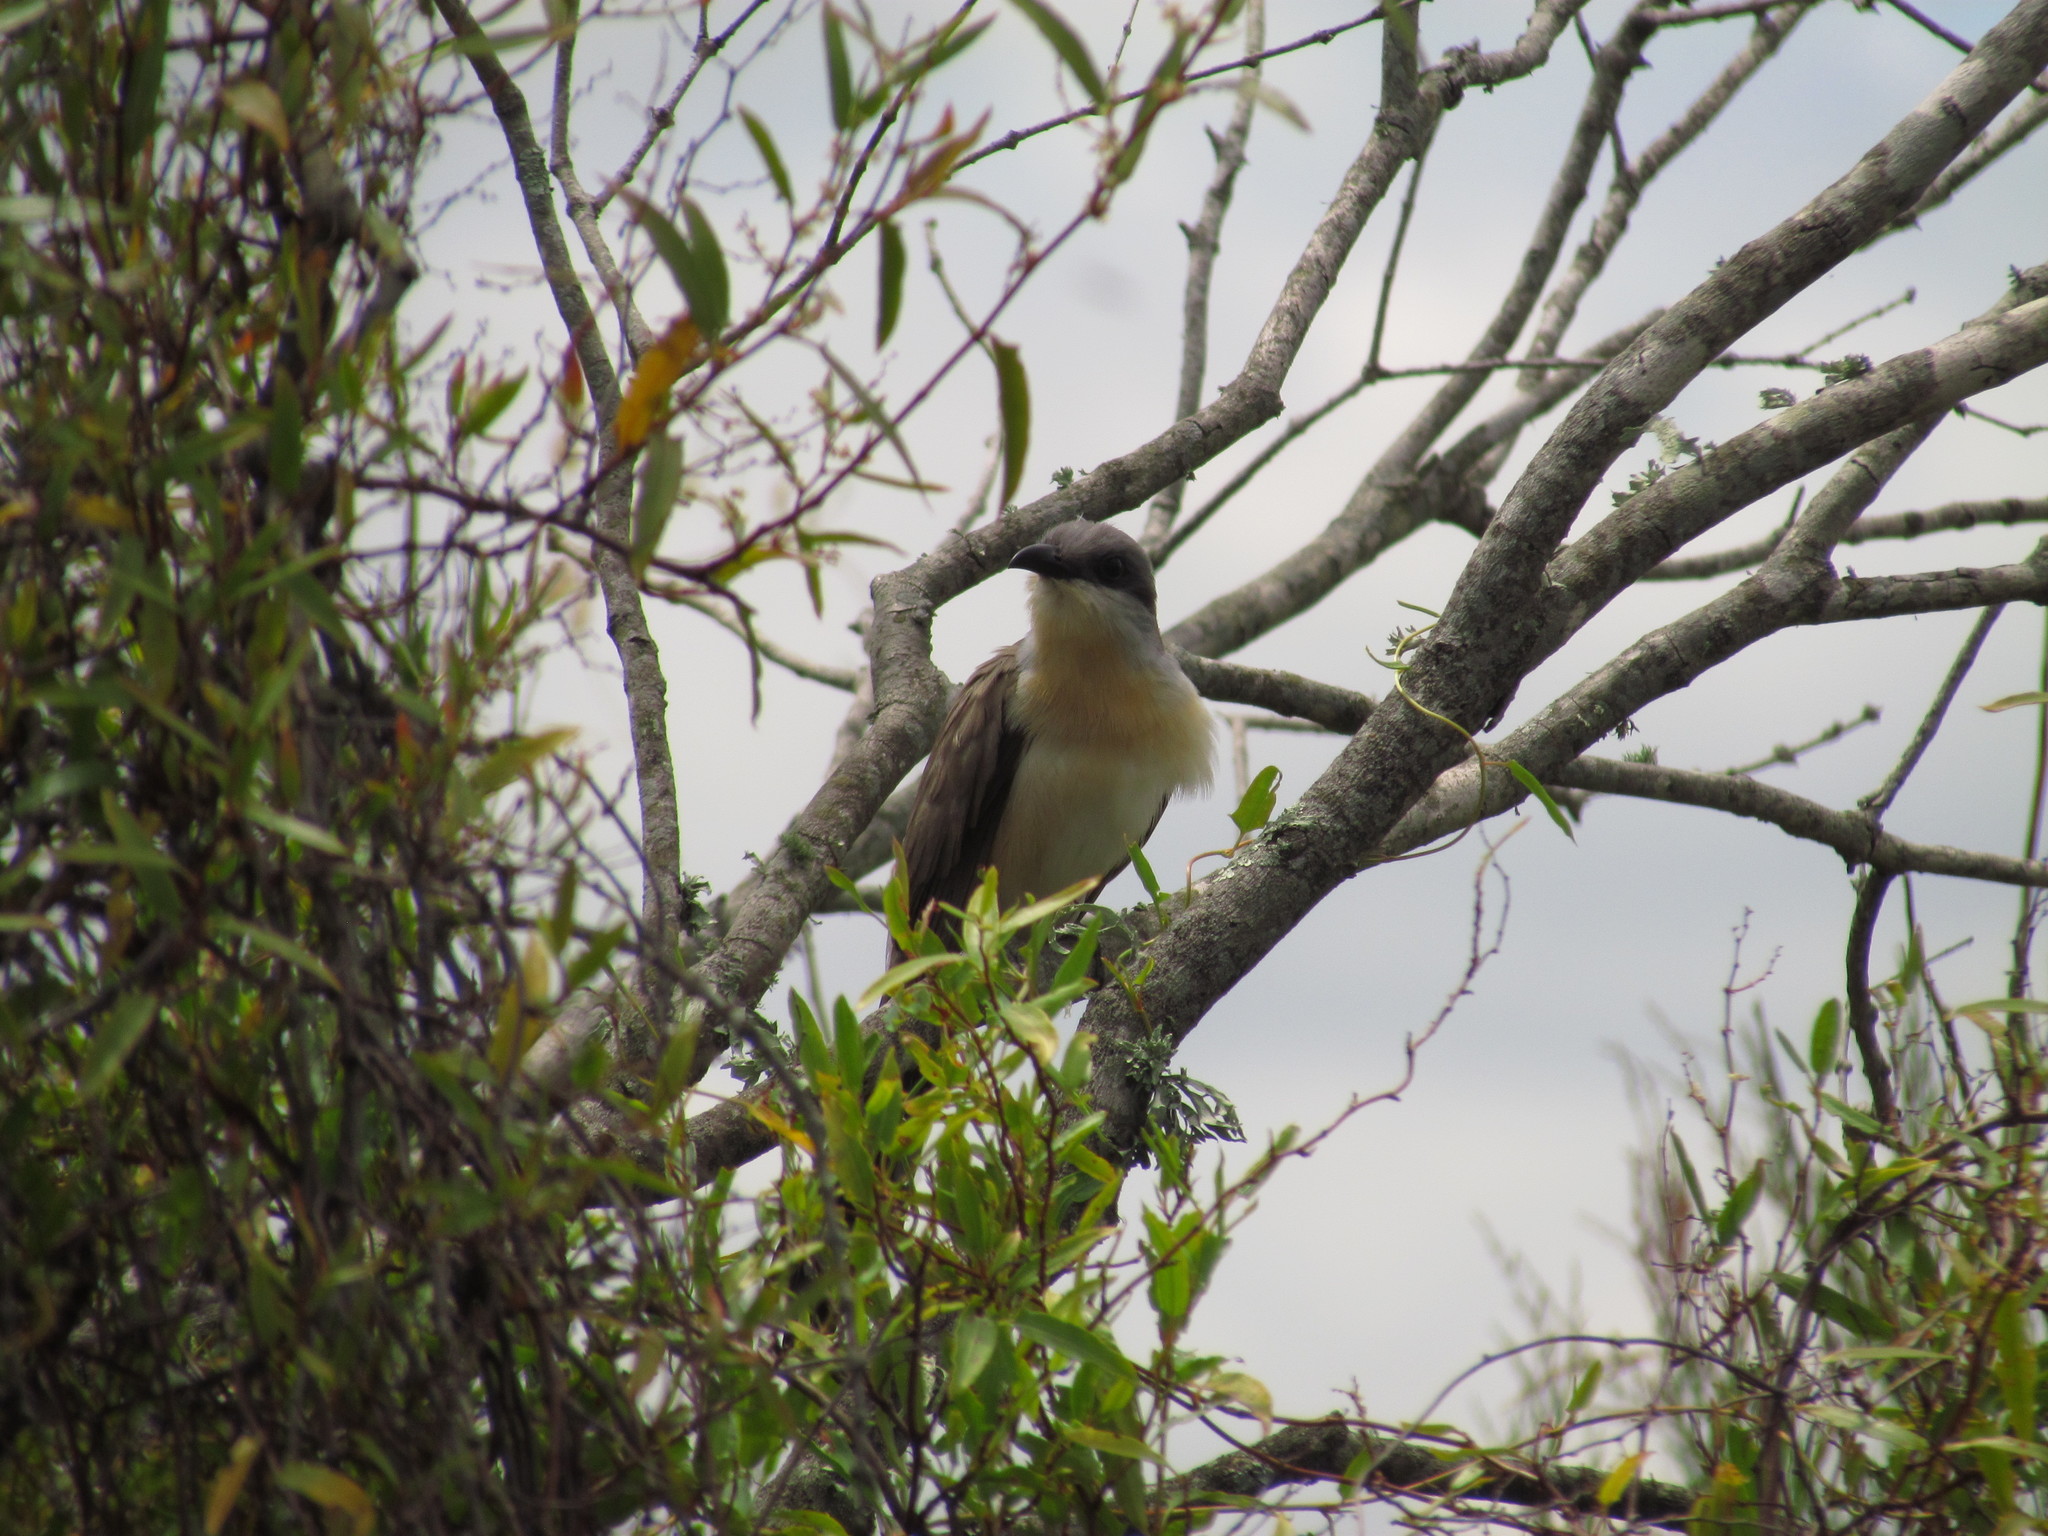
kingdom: Animalia
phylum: Chordata
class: Aves
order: Cuculiformes
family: Cuculidae
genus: Coccyzus
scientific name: Coccyzus melacoryphus
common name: Dark-billed cuckoo
